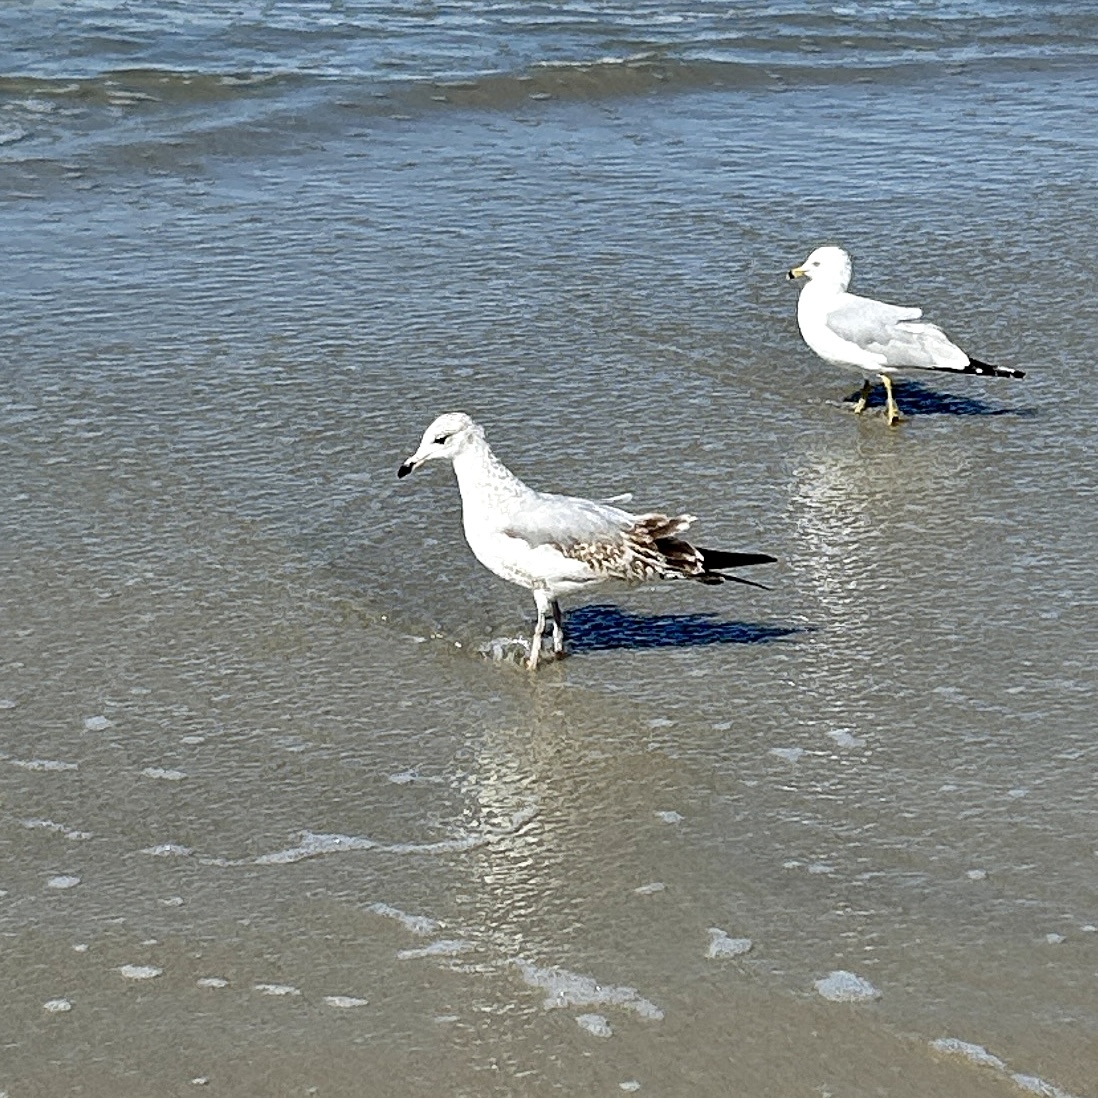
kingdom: Animalia
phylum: Chordata
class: Aves
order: Charadriiformes
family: Laridae
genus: Larus
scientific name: Larus californicus
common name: California gull
